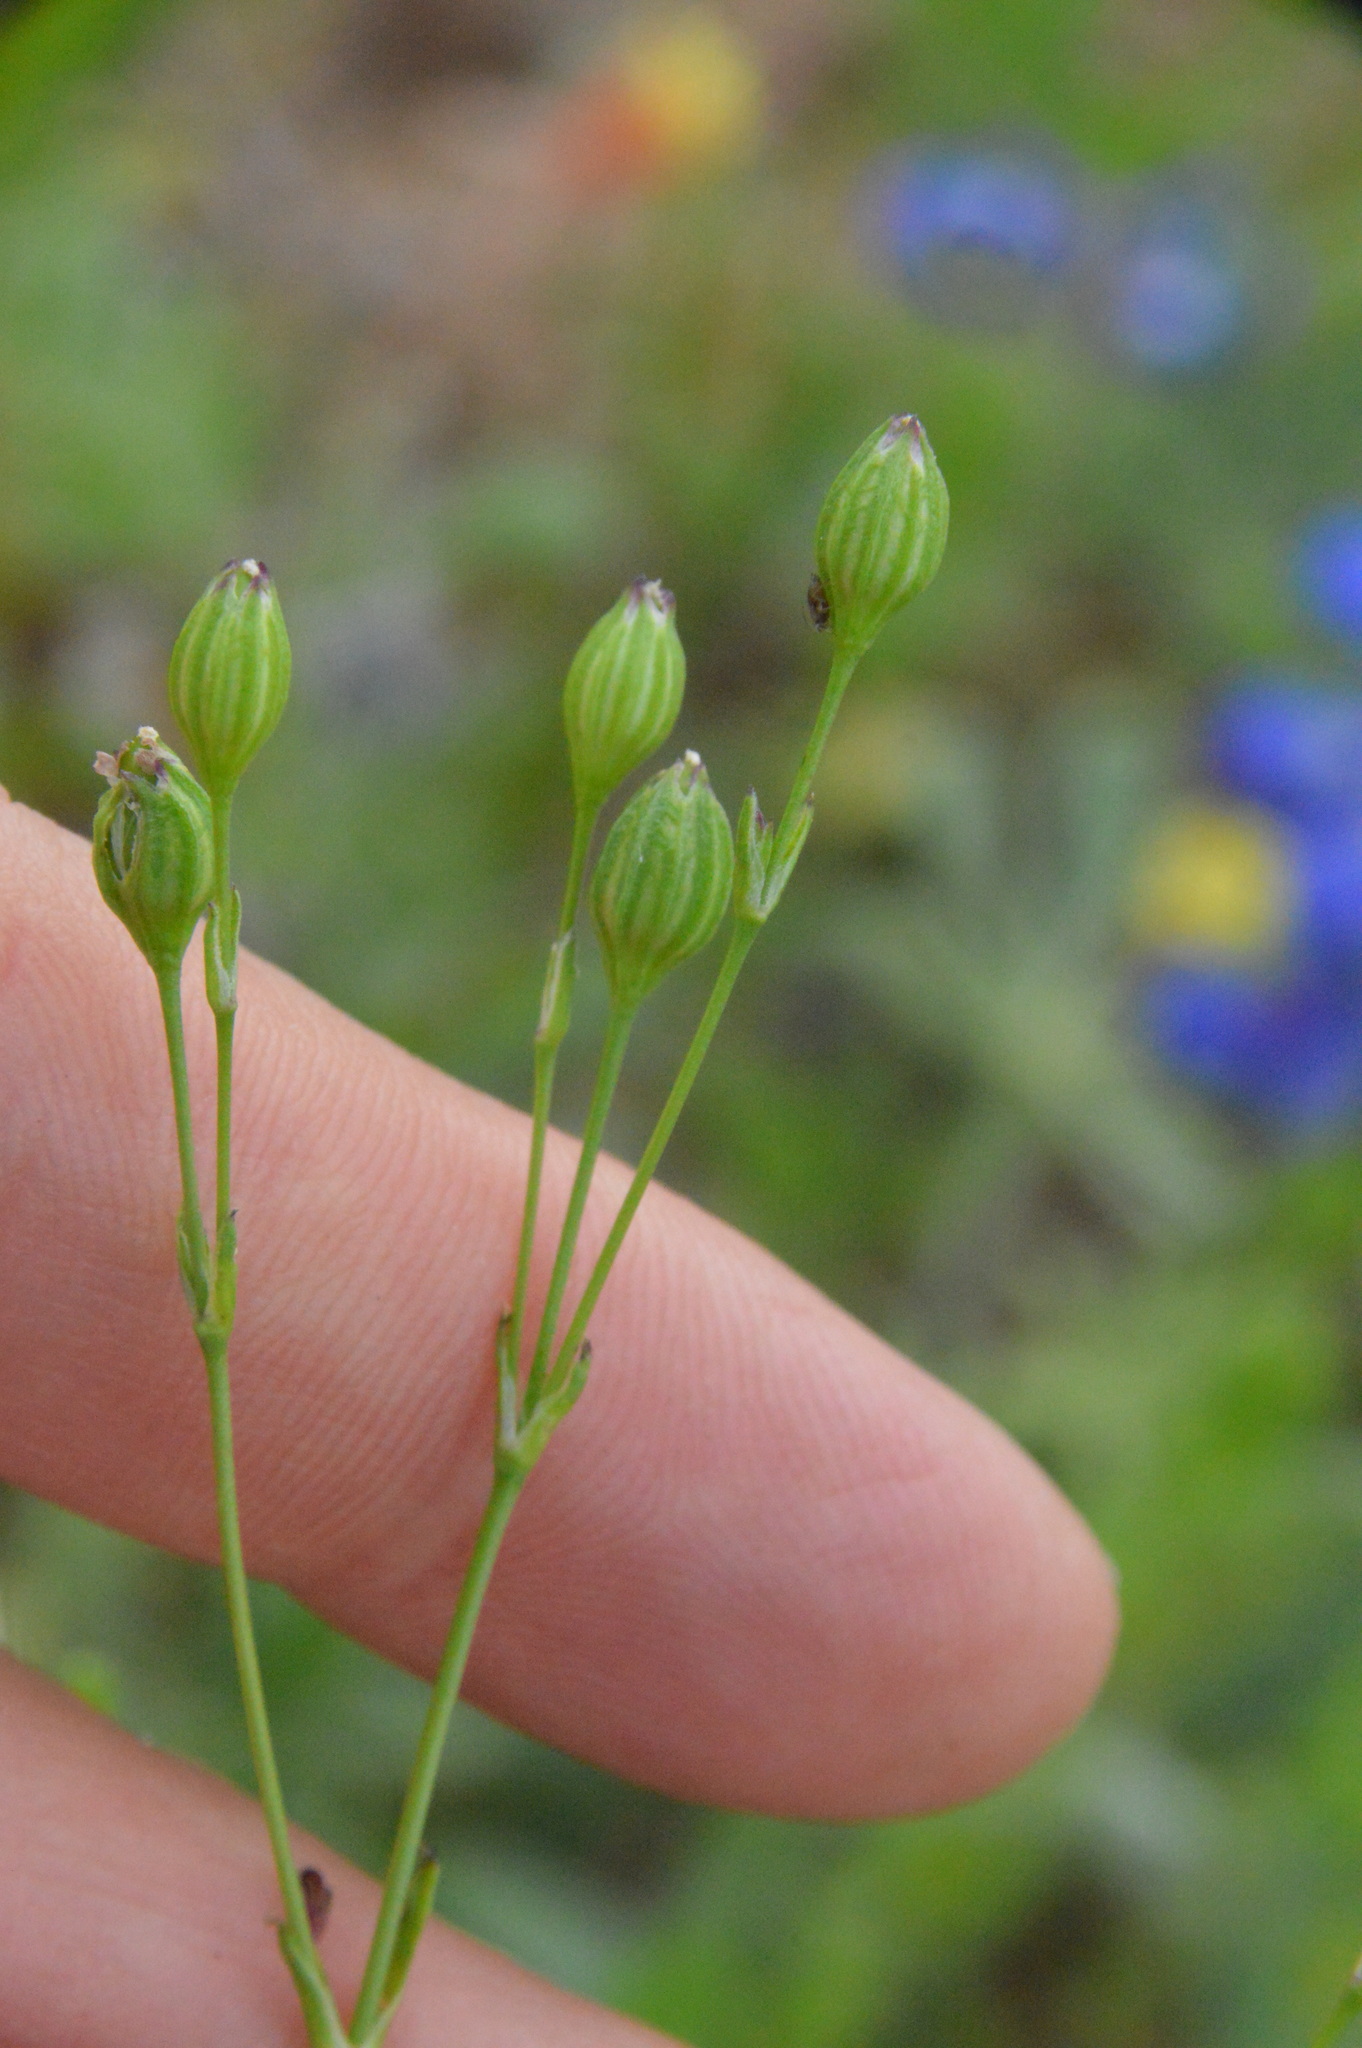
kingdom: Plantae
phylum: Tracheophyta
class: Magnoliopsida
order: Caryophyllales
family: Caryophyllaceae
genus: Silene
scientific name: Silene antirrhina
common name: Sleepy catchfly
